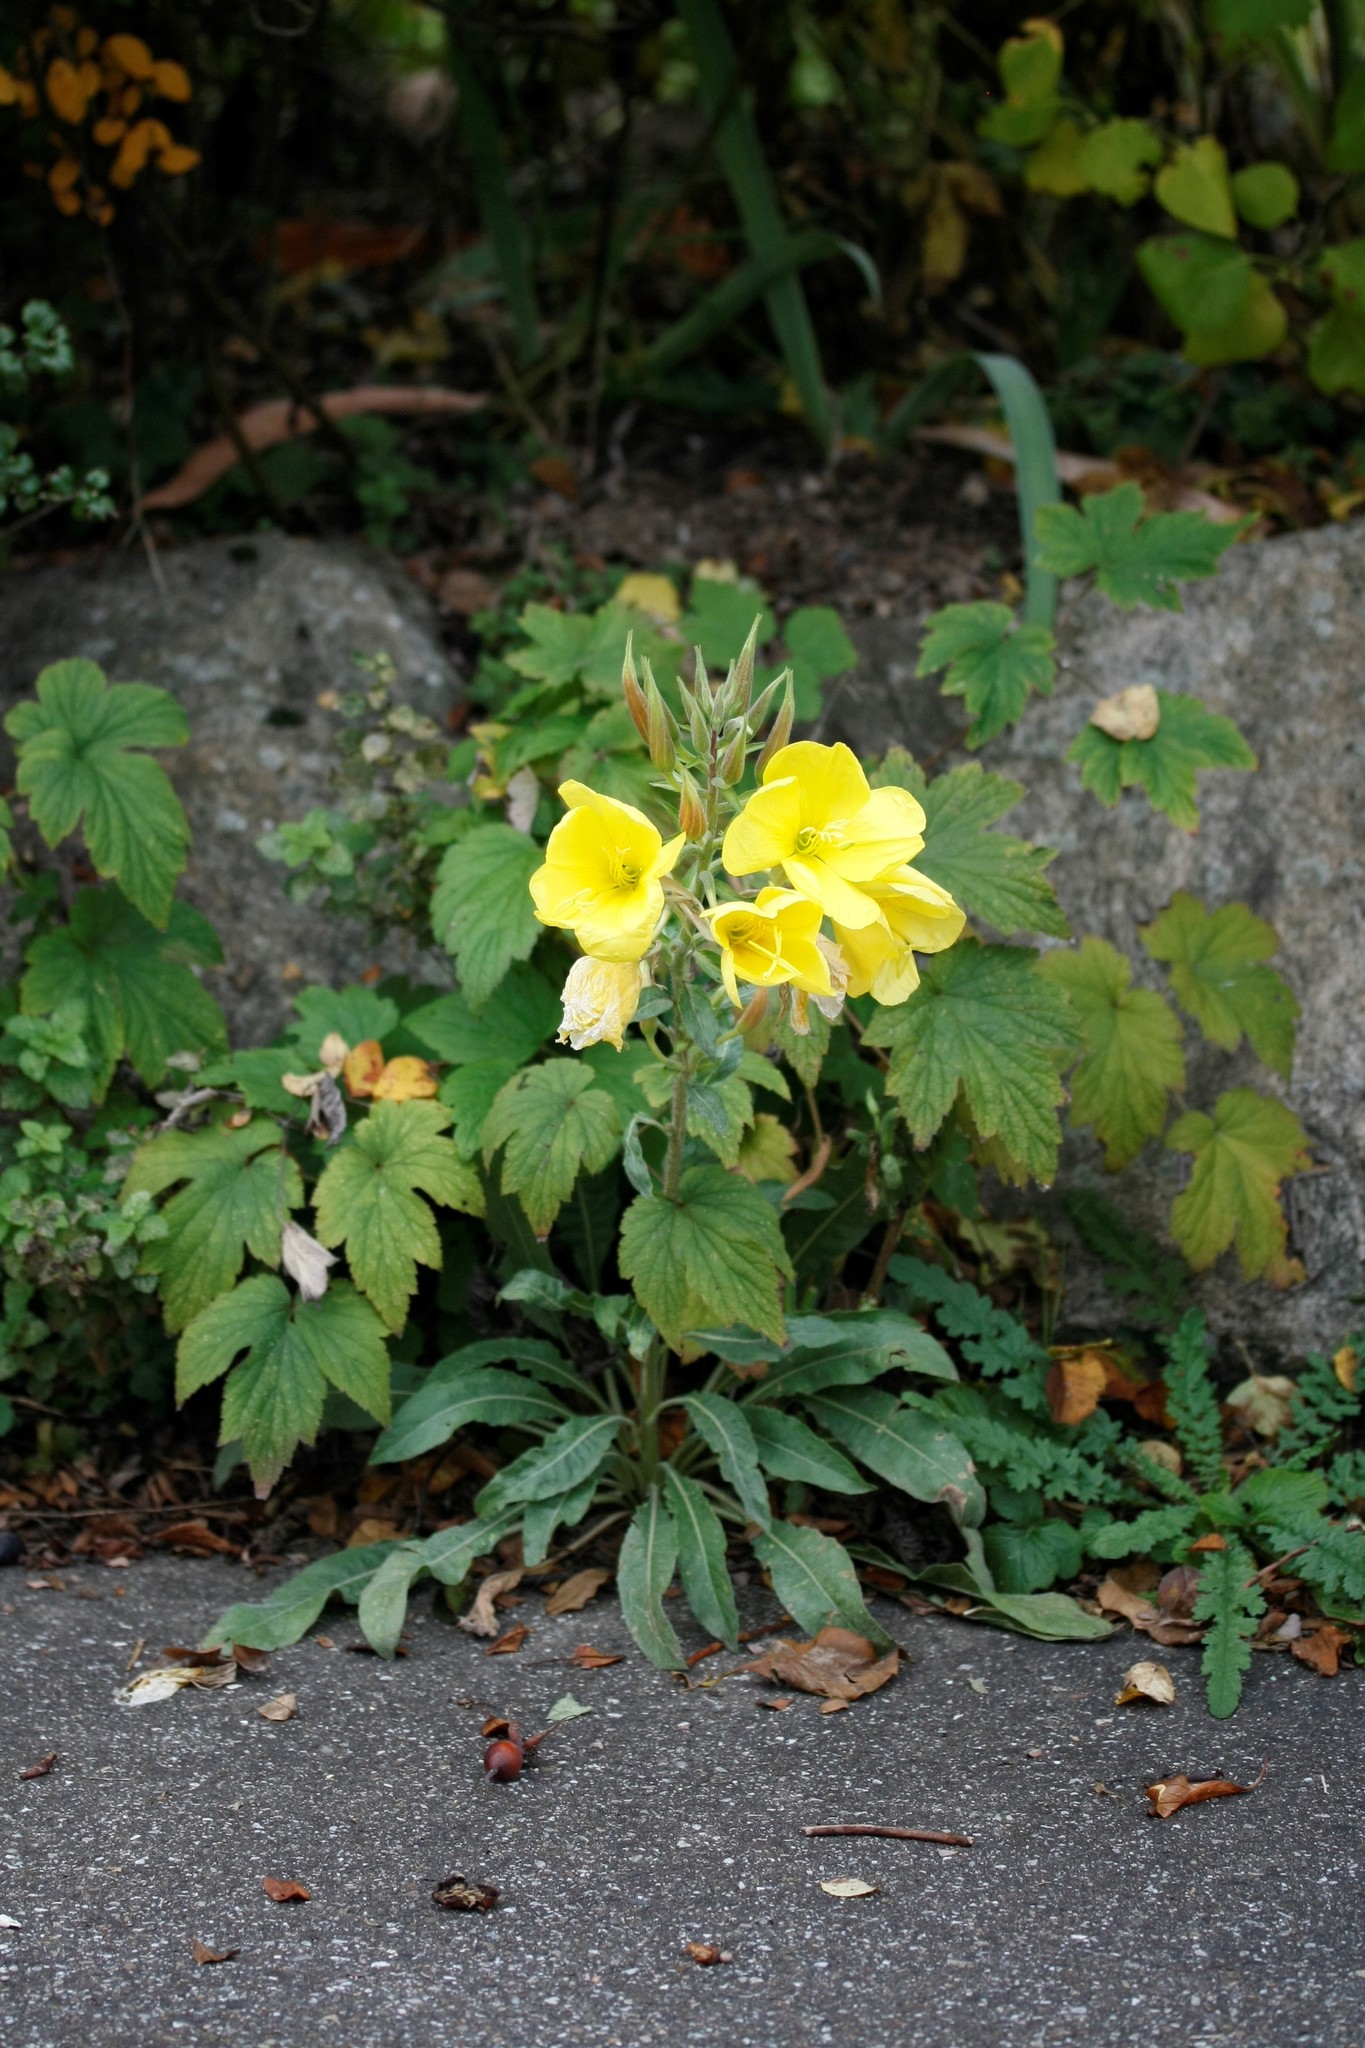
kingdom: Plantae
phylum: Tracheophyta
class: Magnoliopsida
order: Myrtales
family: Onagraceae
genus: Oenothera
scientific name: Oenothera glazioviana
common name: Large-flowered evening-primrose
